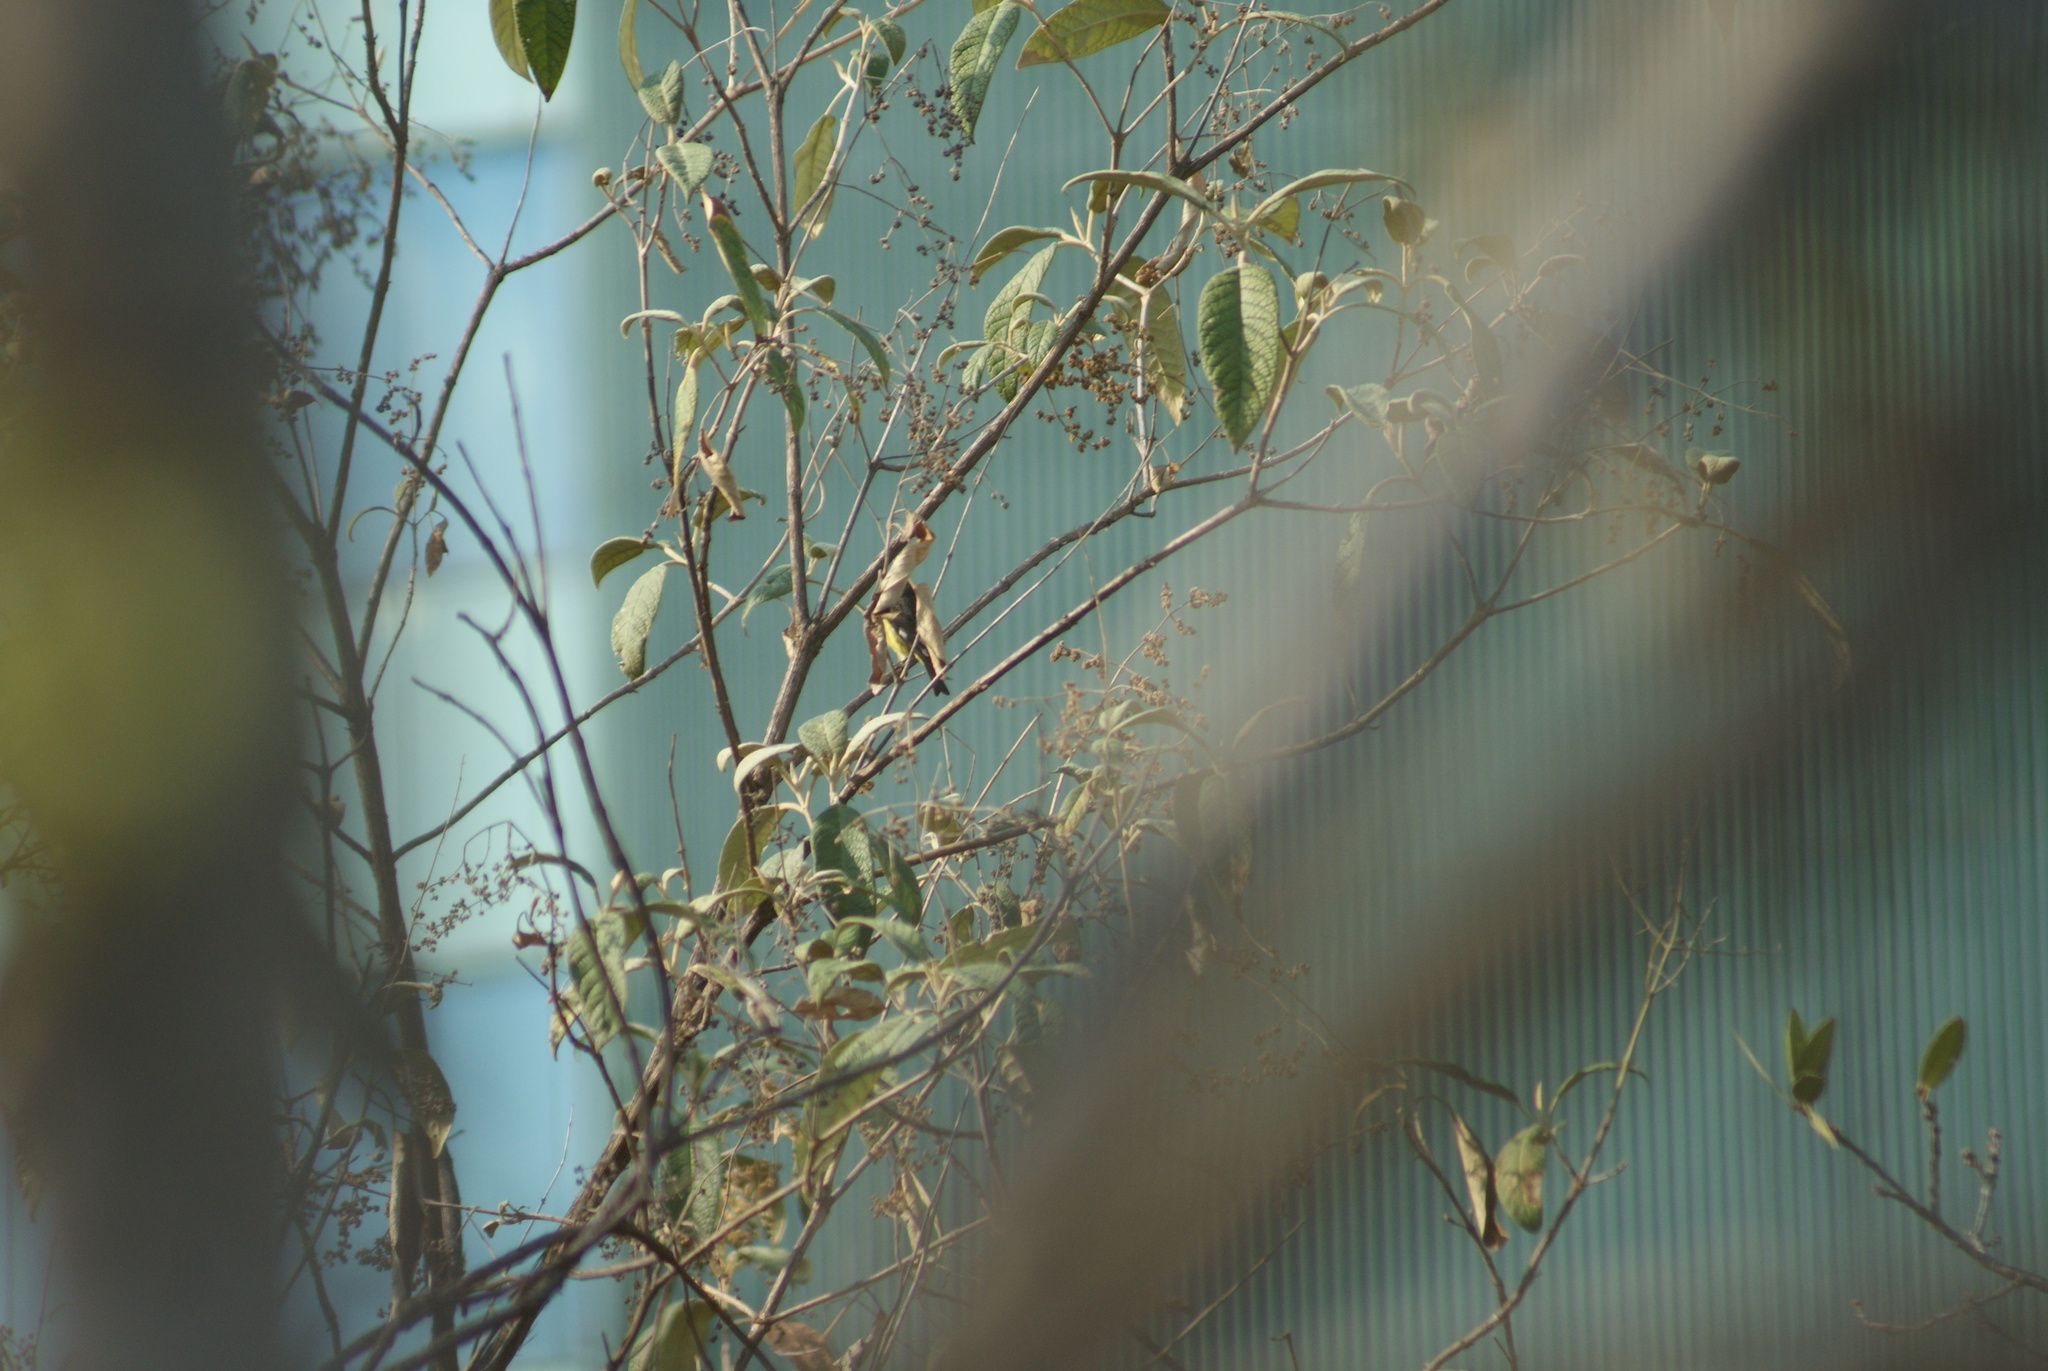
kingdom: Animalia
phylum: Chordata
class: Aves
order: Passeriformes
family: Fringillidae
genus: Spinus
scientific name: Spinus psaltria
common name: Lesser goldfinch
